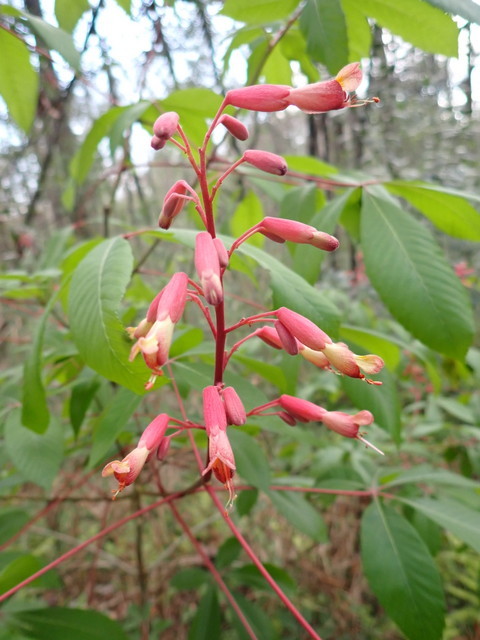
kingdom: Plantae
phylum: Tracheophyta
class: Magnoliopsida
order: Sapindales
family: Sapindaceae
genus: Aesculus
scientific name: Aesculus pavia
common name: Red buckeye
